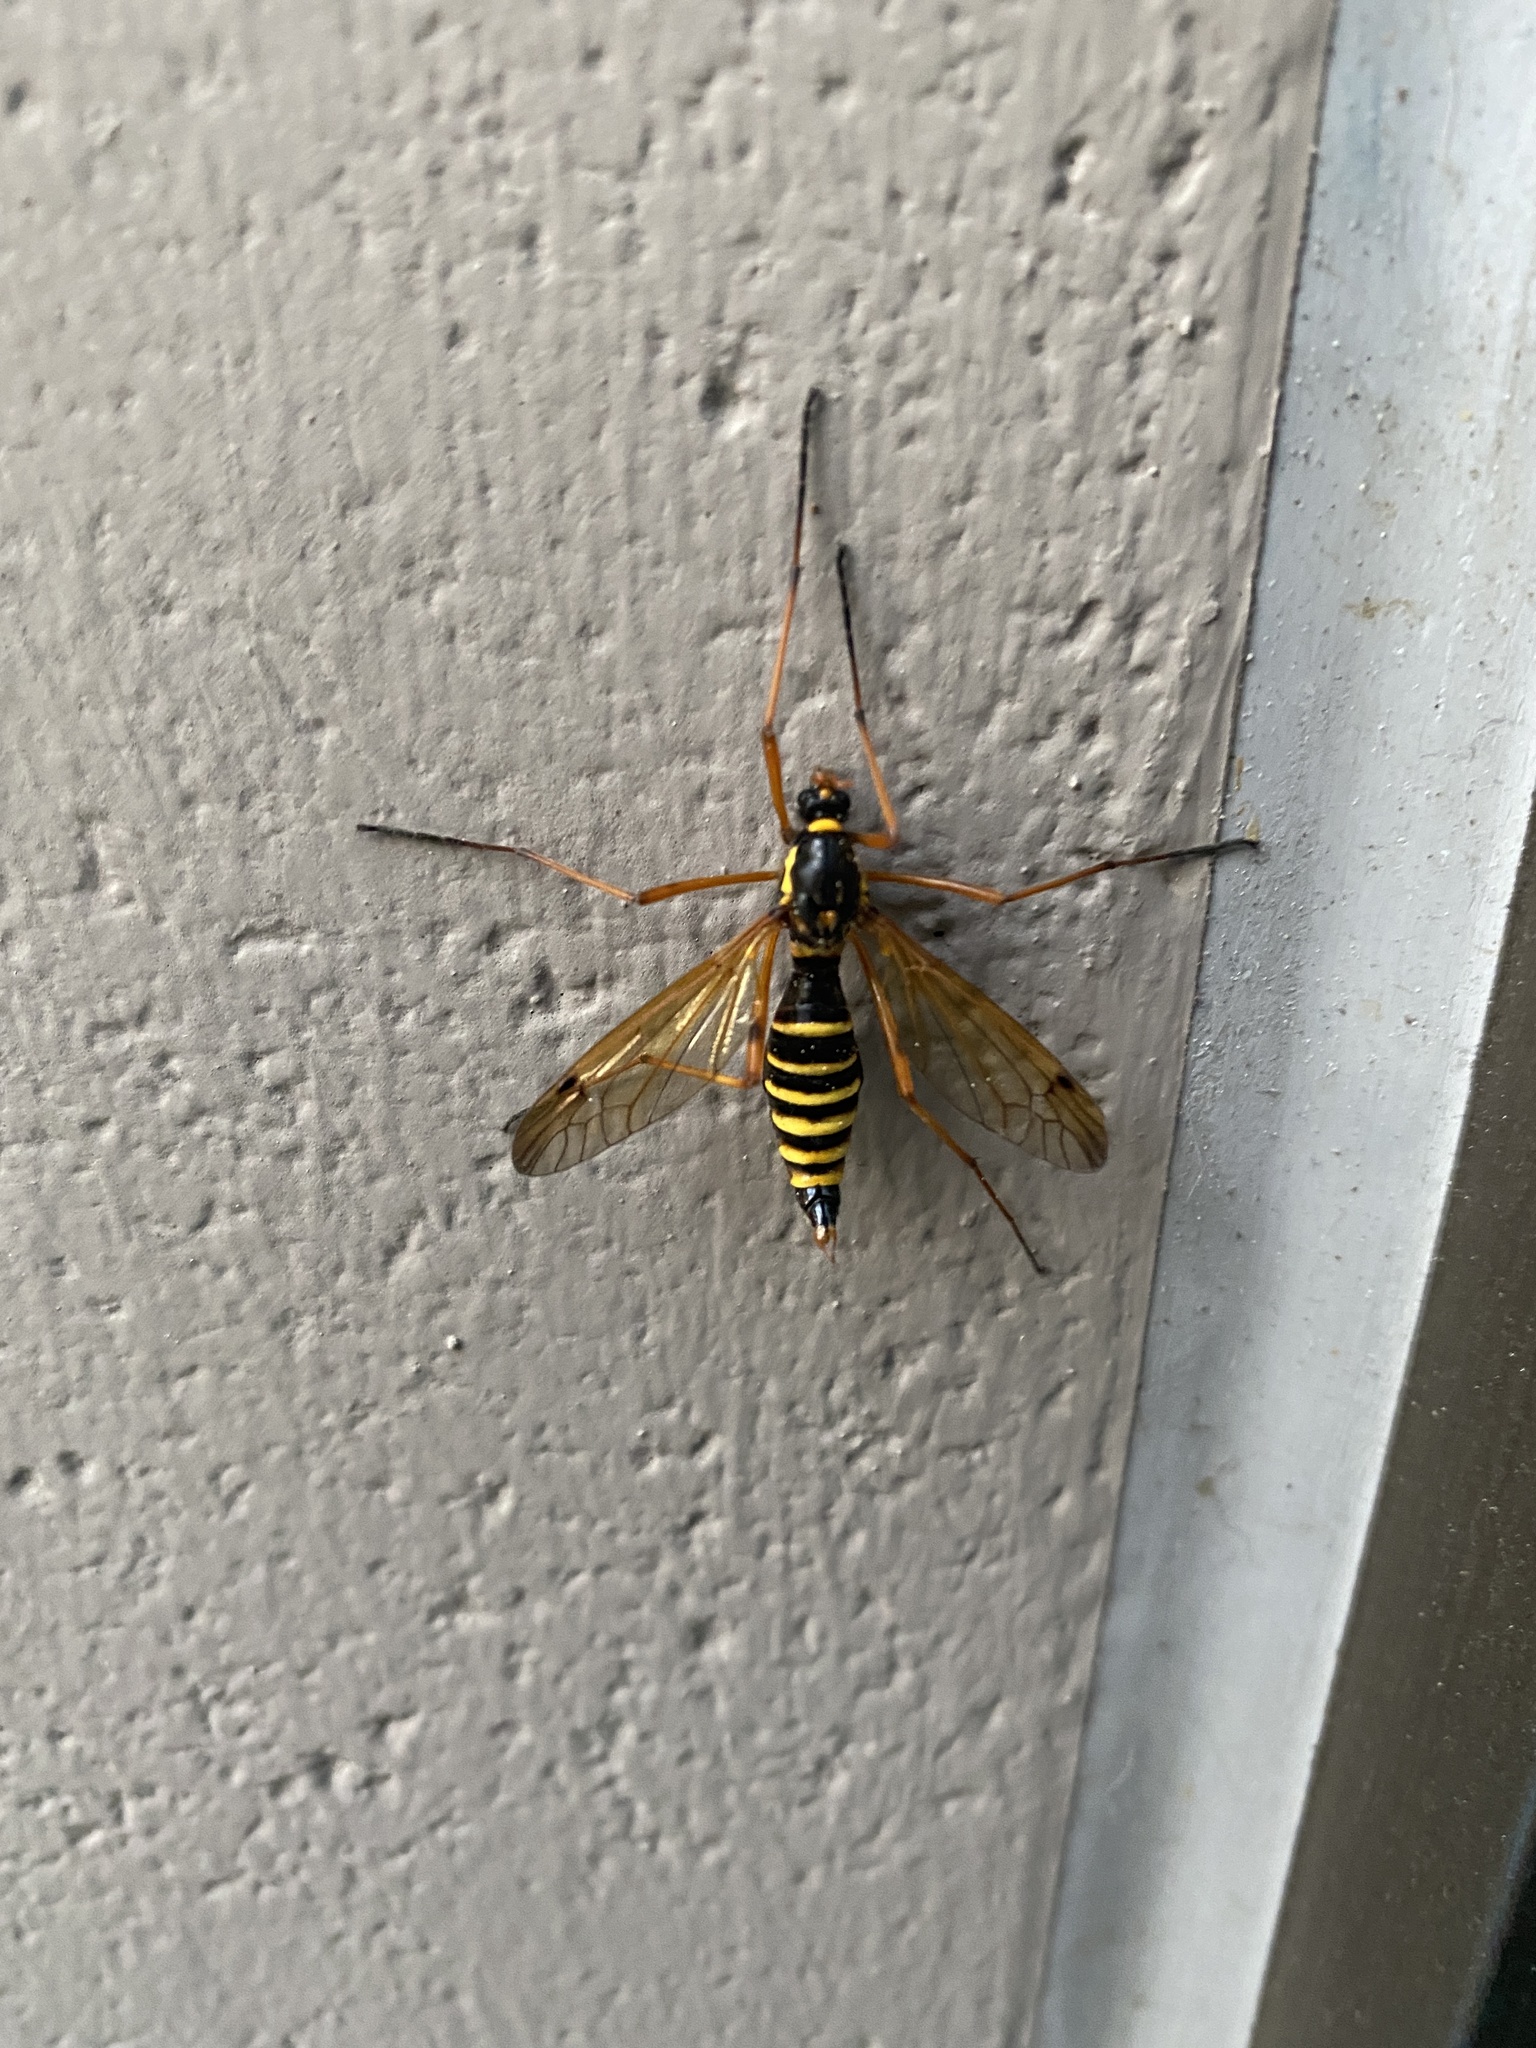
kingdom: Animalia
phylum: Arthropoda
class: Insecta
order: Diptera
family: Tipulidae
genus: Ctenophora
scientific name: Ctenophora flaveolata
